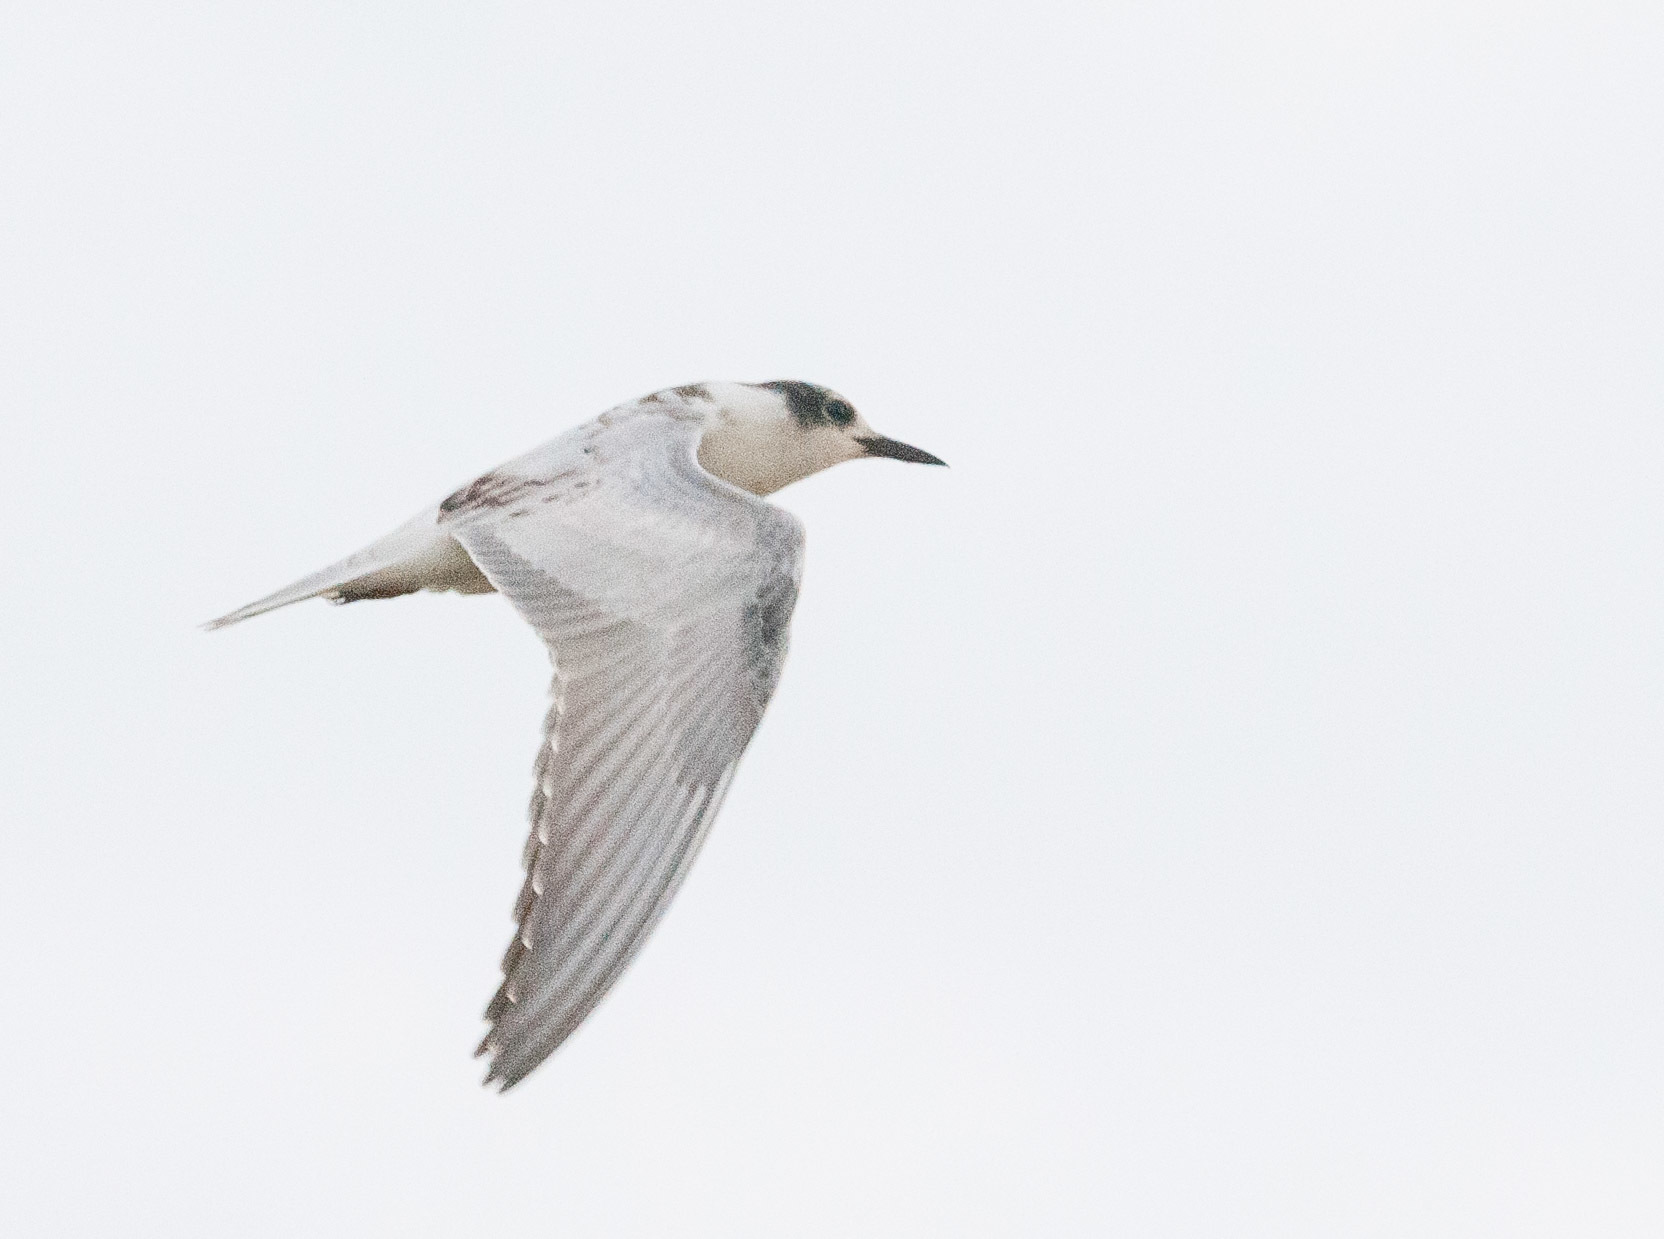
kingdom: Animalia
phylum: Chordata
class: Aves
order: Charadriiformes
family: Laridae
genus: Chlidonias
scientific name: Chlidonias hybrida
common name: Whiskered tern
